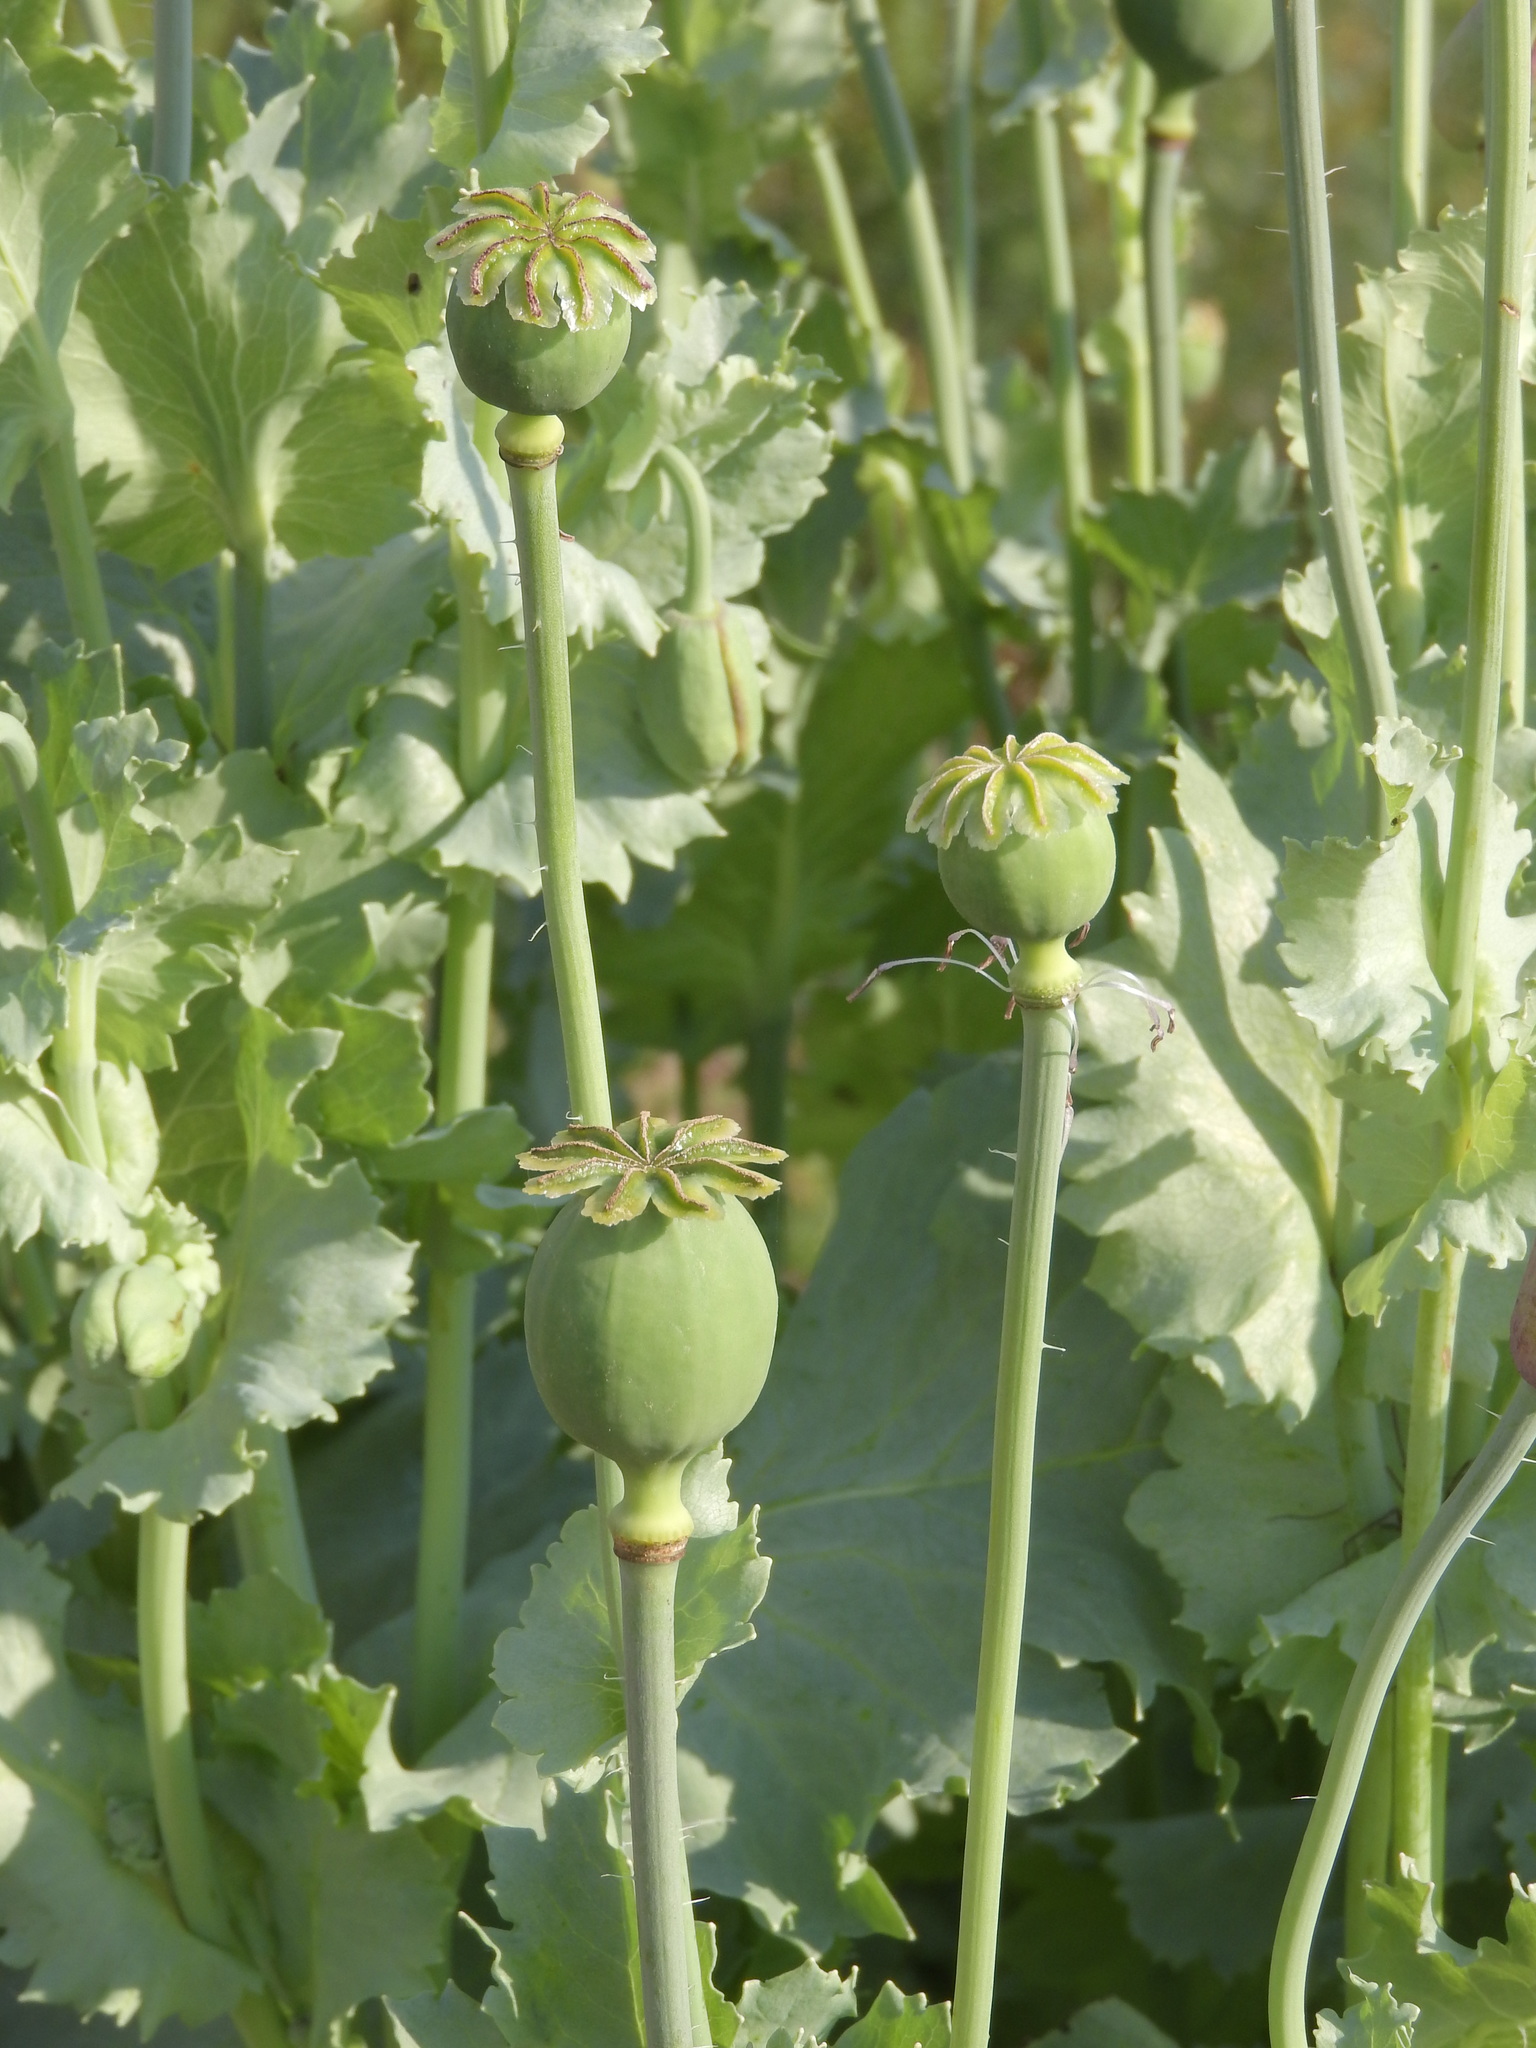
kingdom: Plantae
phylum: Tracheophyta
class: Magnoliopsida
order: Ranunculales
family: Papaveraceae
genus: Papaver
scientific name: Papaver somniferum
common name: Opium poppy
